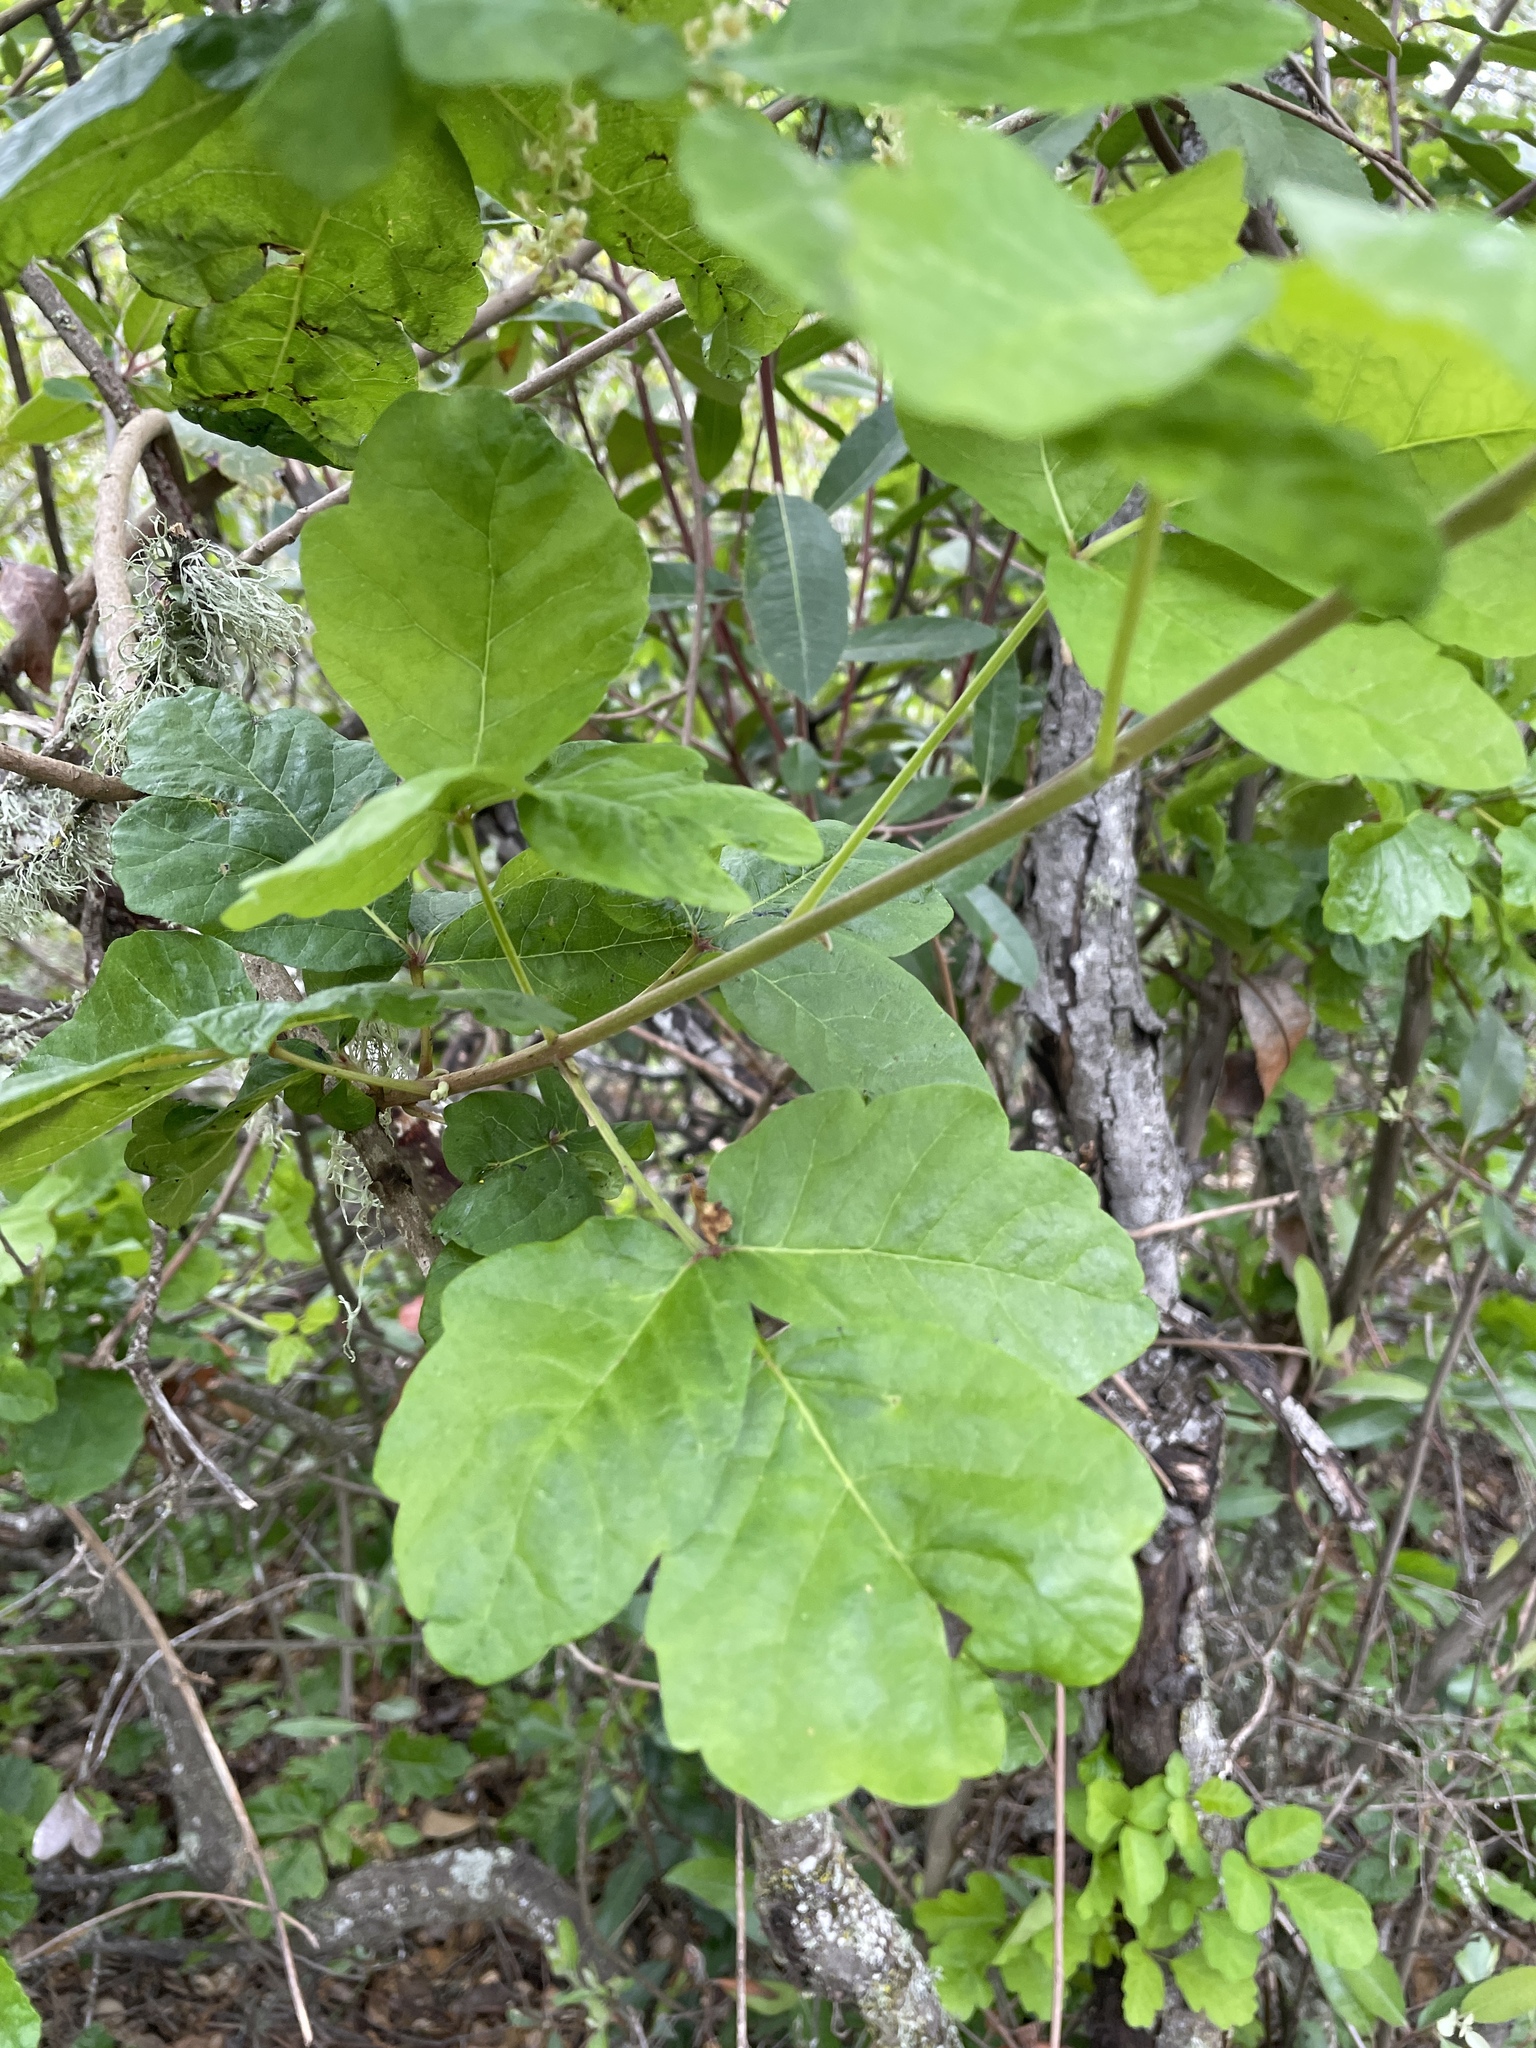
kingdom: Plantae
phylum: Tracheophyta
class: Magnoliopsida
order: Sapindales
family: Anacardiaceae
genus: Toxicodendron
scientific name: Toxicodendron diversilobum
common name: Pacific poison-oak
